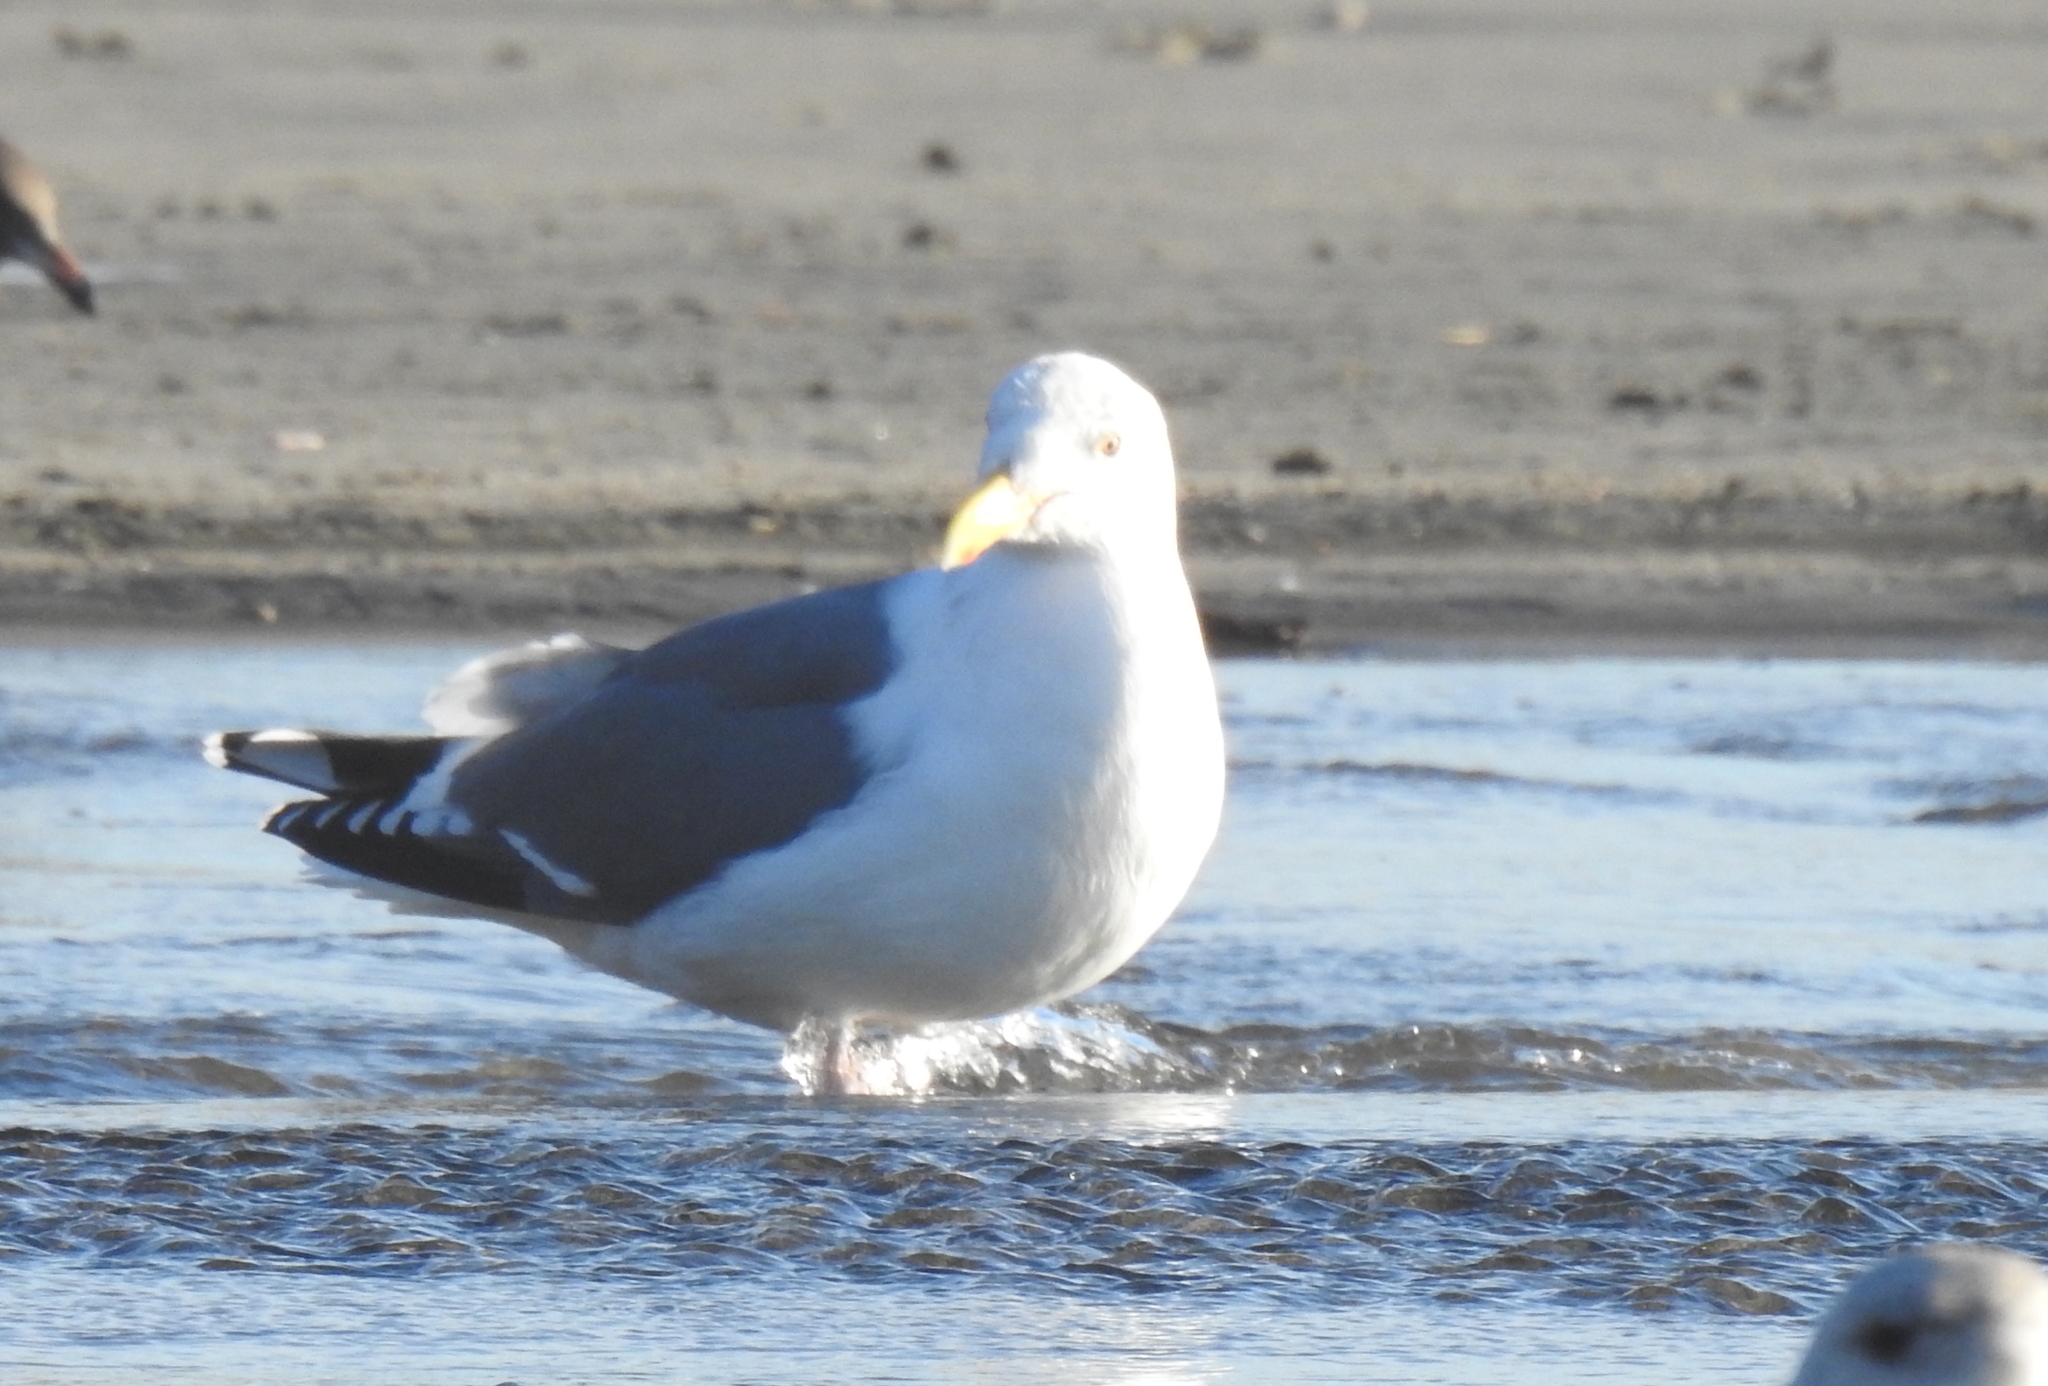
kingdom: Animalia
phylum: Chordata
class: Aves
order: Charadriiformes
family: Laridae
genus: Larus
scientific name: Larus occidentalis
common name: Western gull
